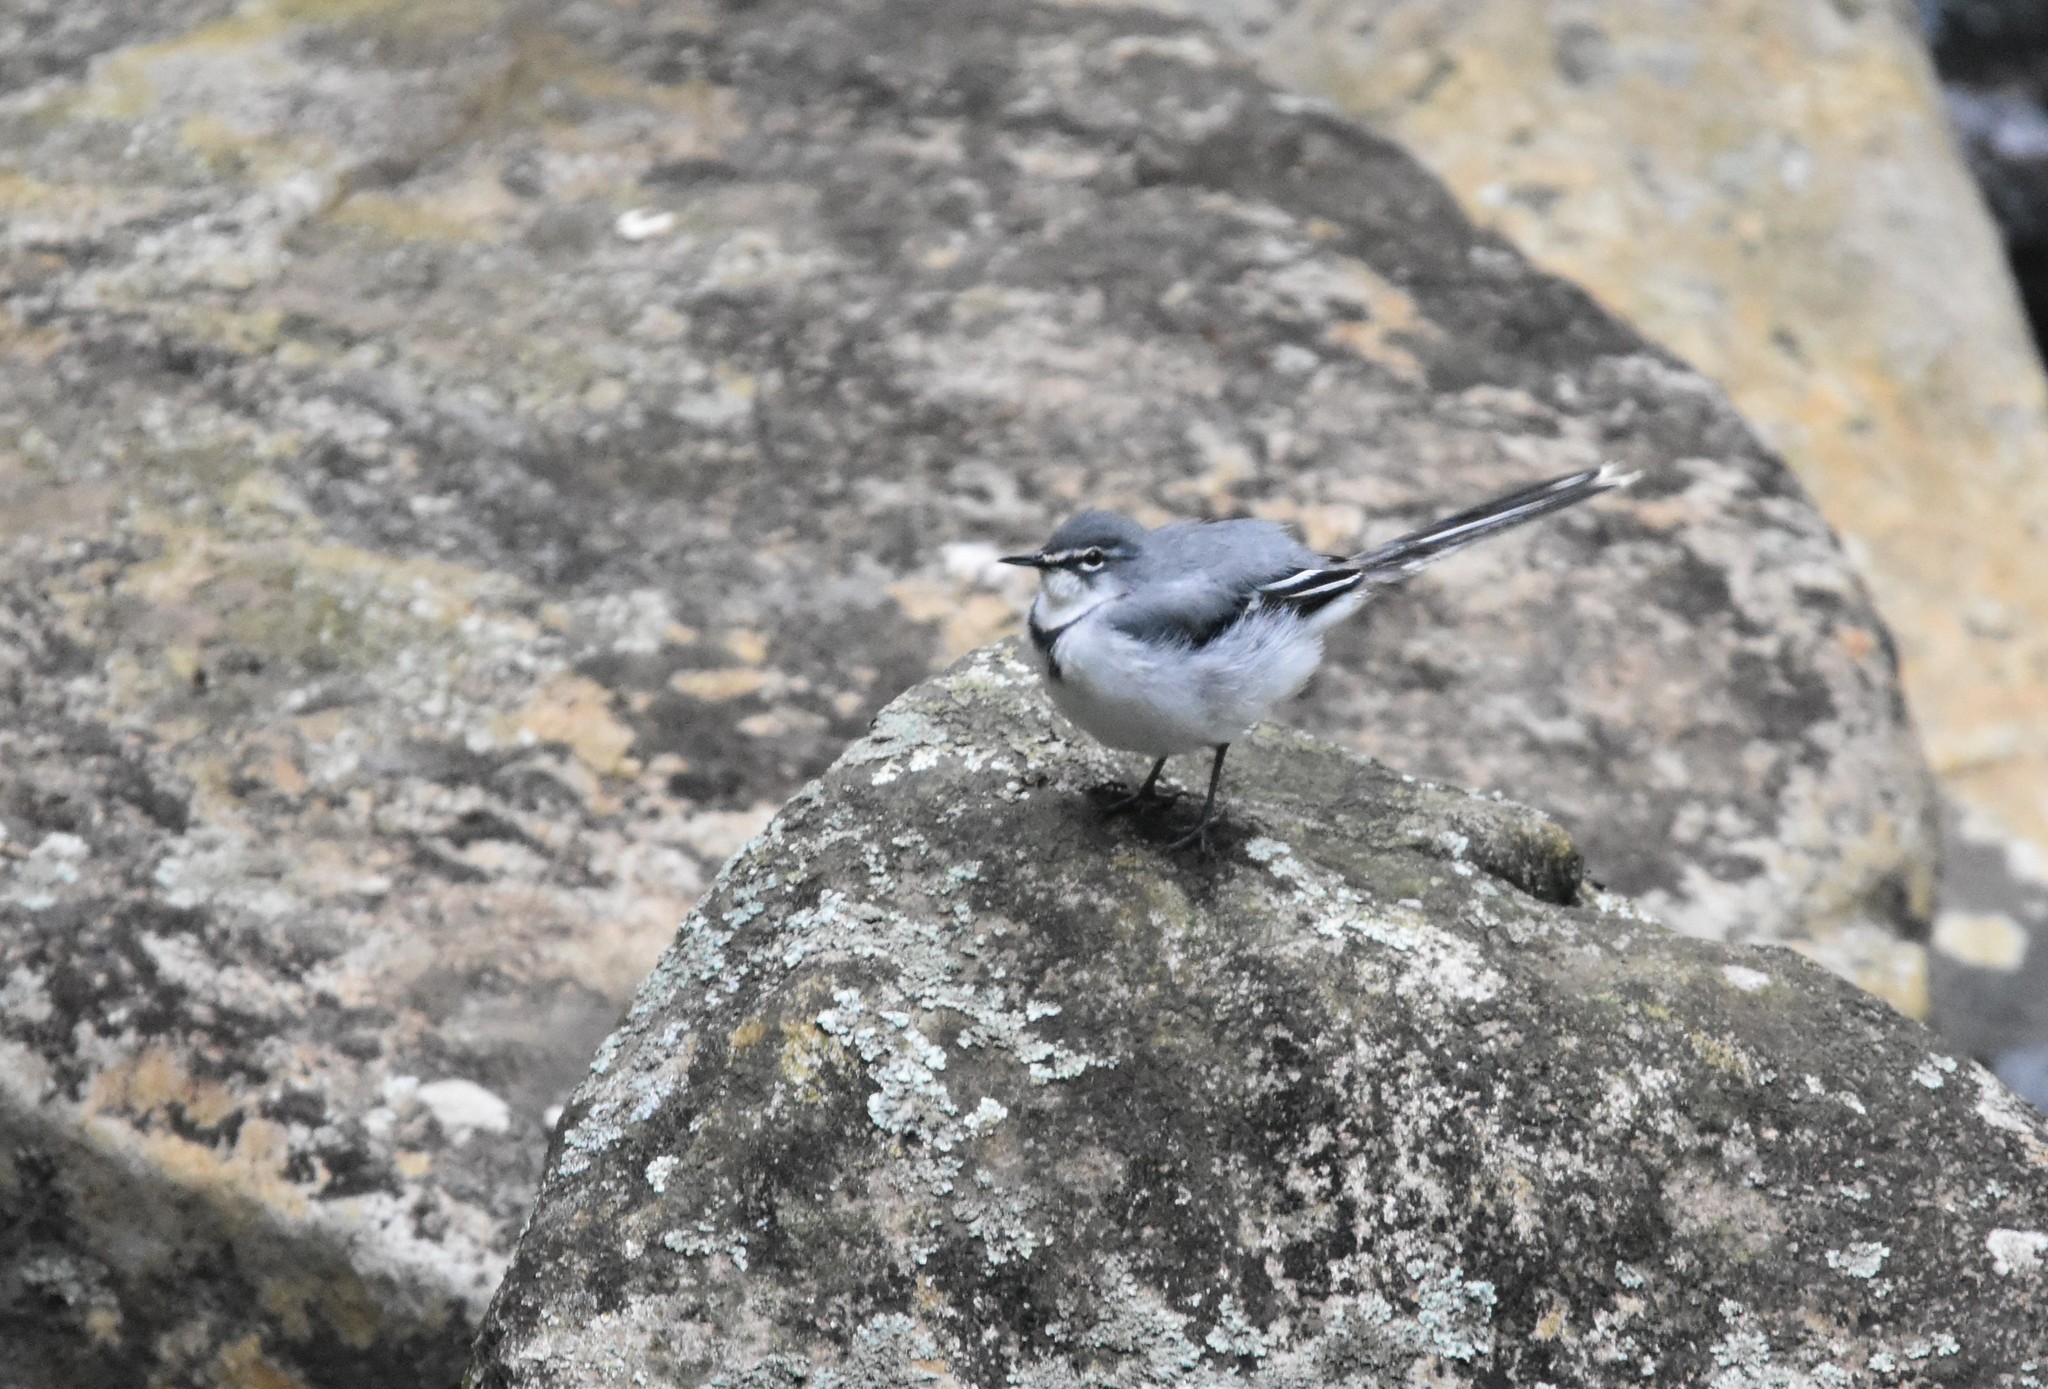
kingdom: Animalia
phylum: Chordata
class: Aves
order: Passeriformes
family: Motacillidae
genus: Motacilla
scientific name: Motacilla clara
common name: Mountain wagtail
